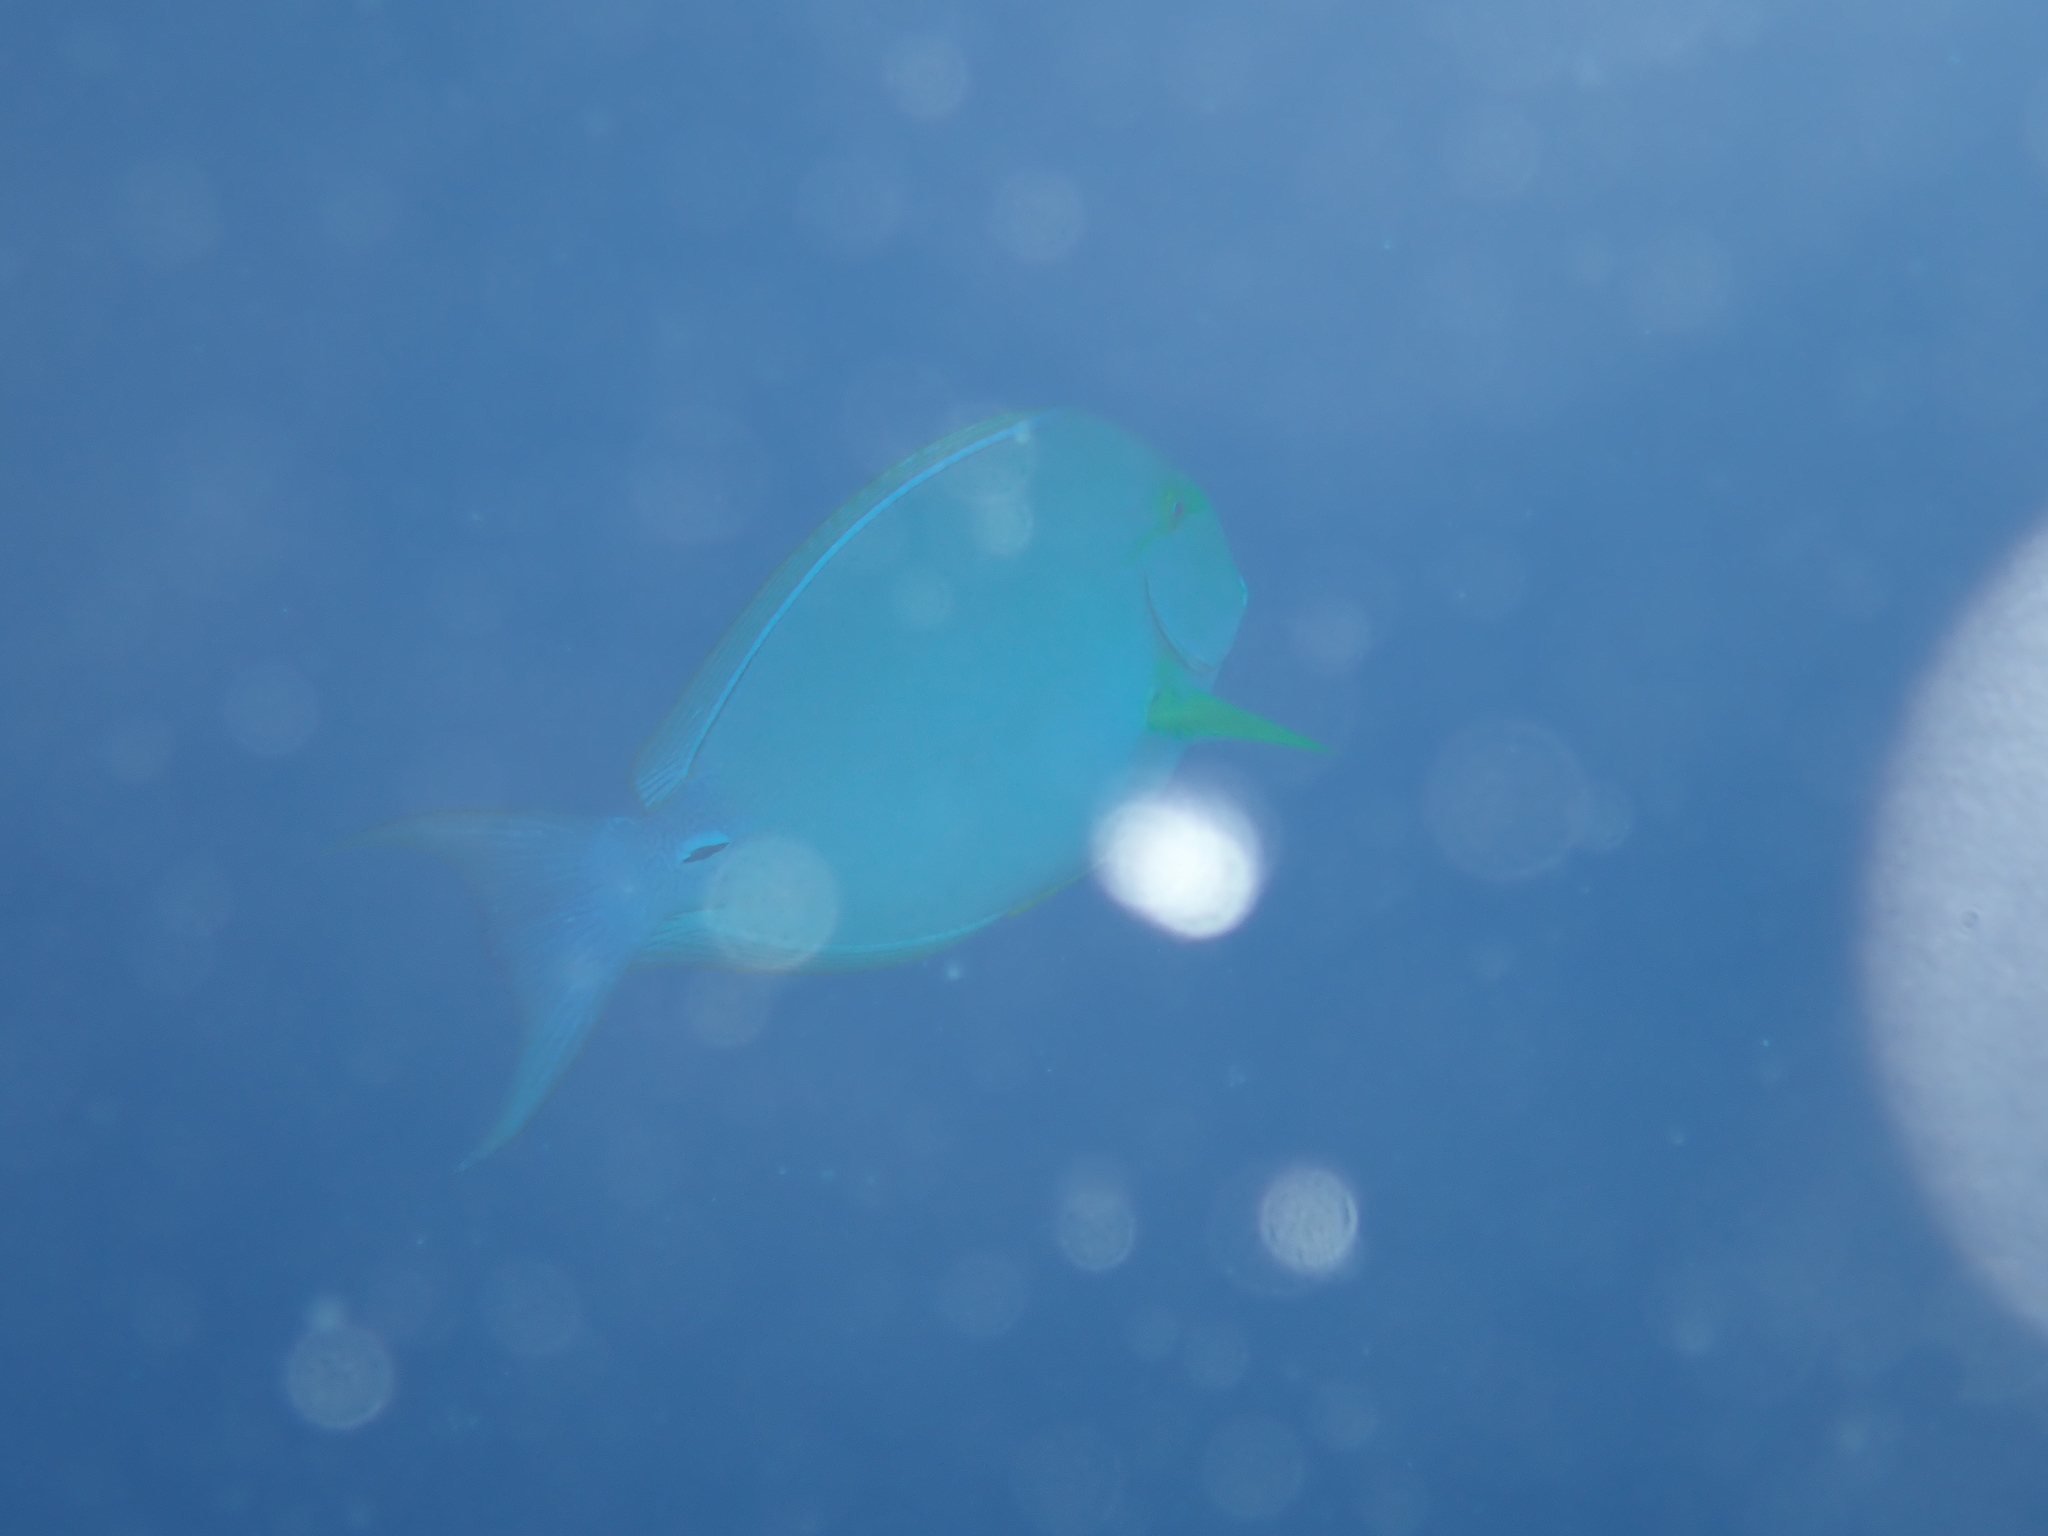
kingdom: Animalia
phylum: Chordata
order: Perciformes
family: Acanthuridae
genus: Acanthurus
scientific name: Acanthurus xanthopterus
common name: Cuvier's surgeonfish
